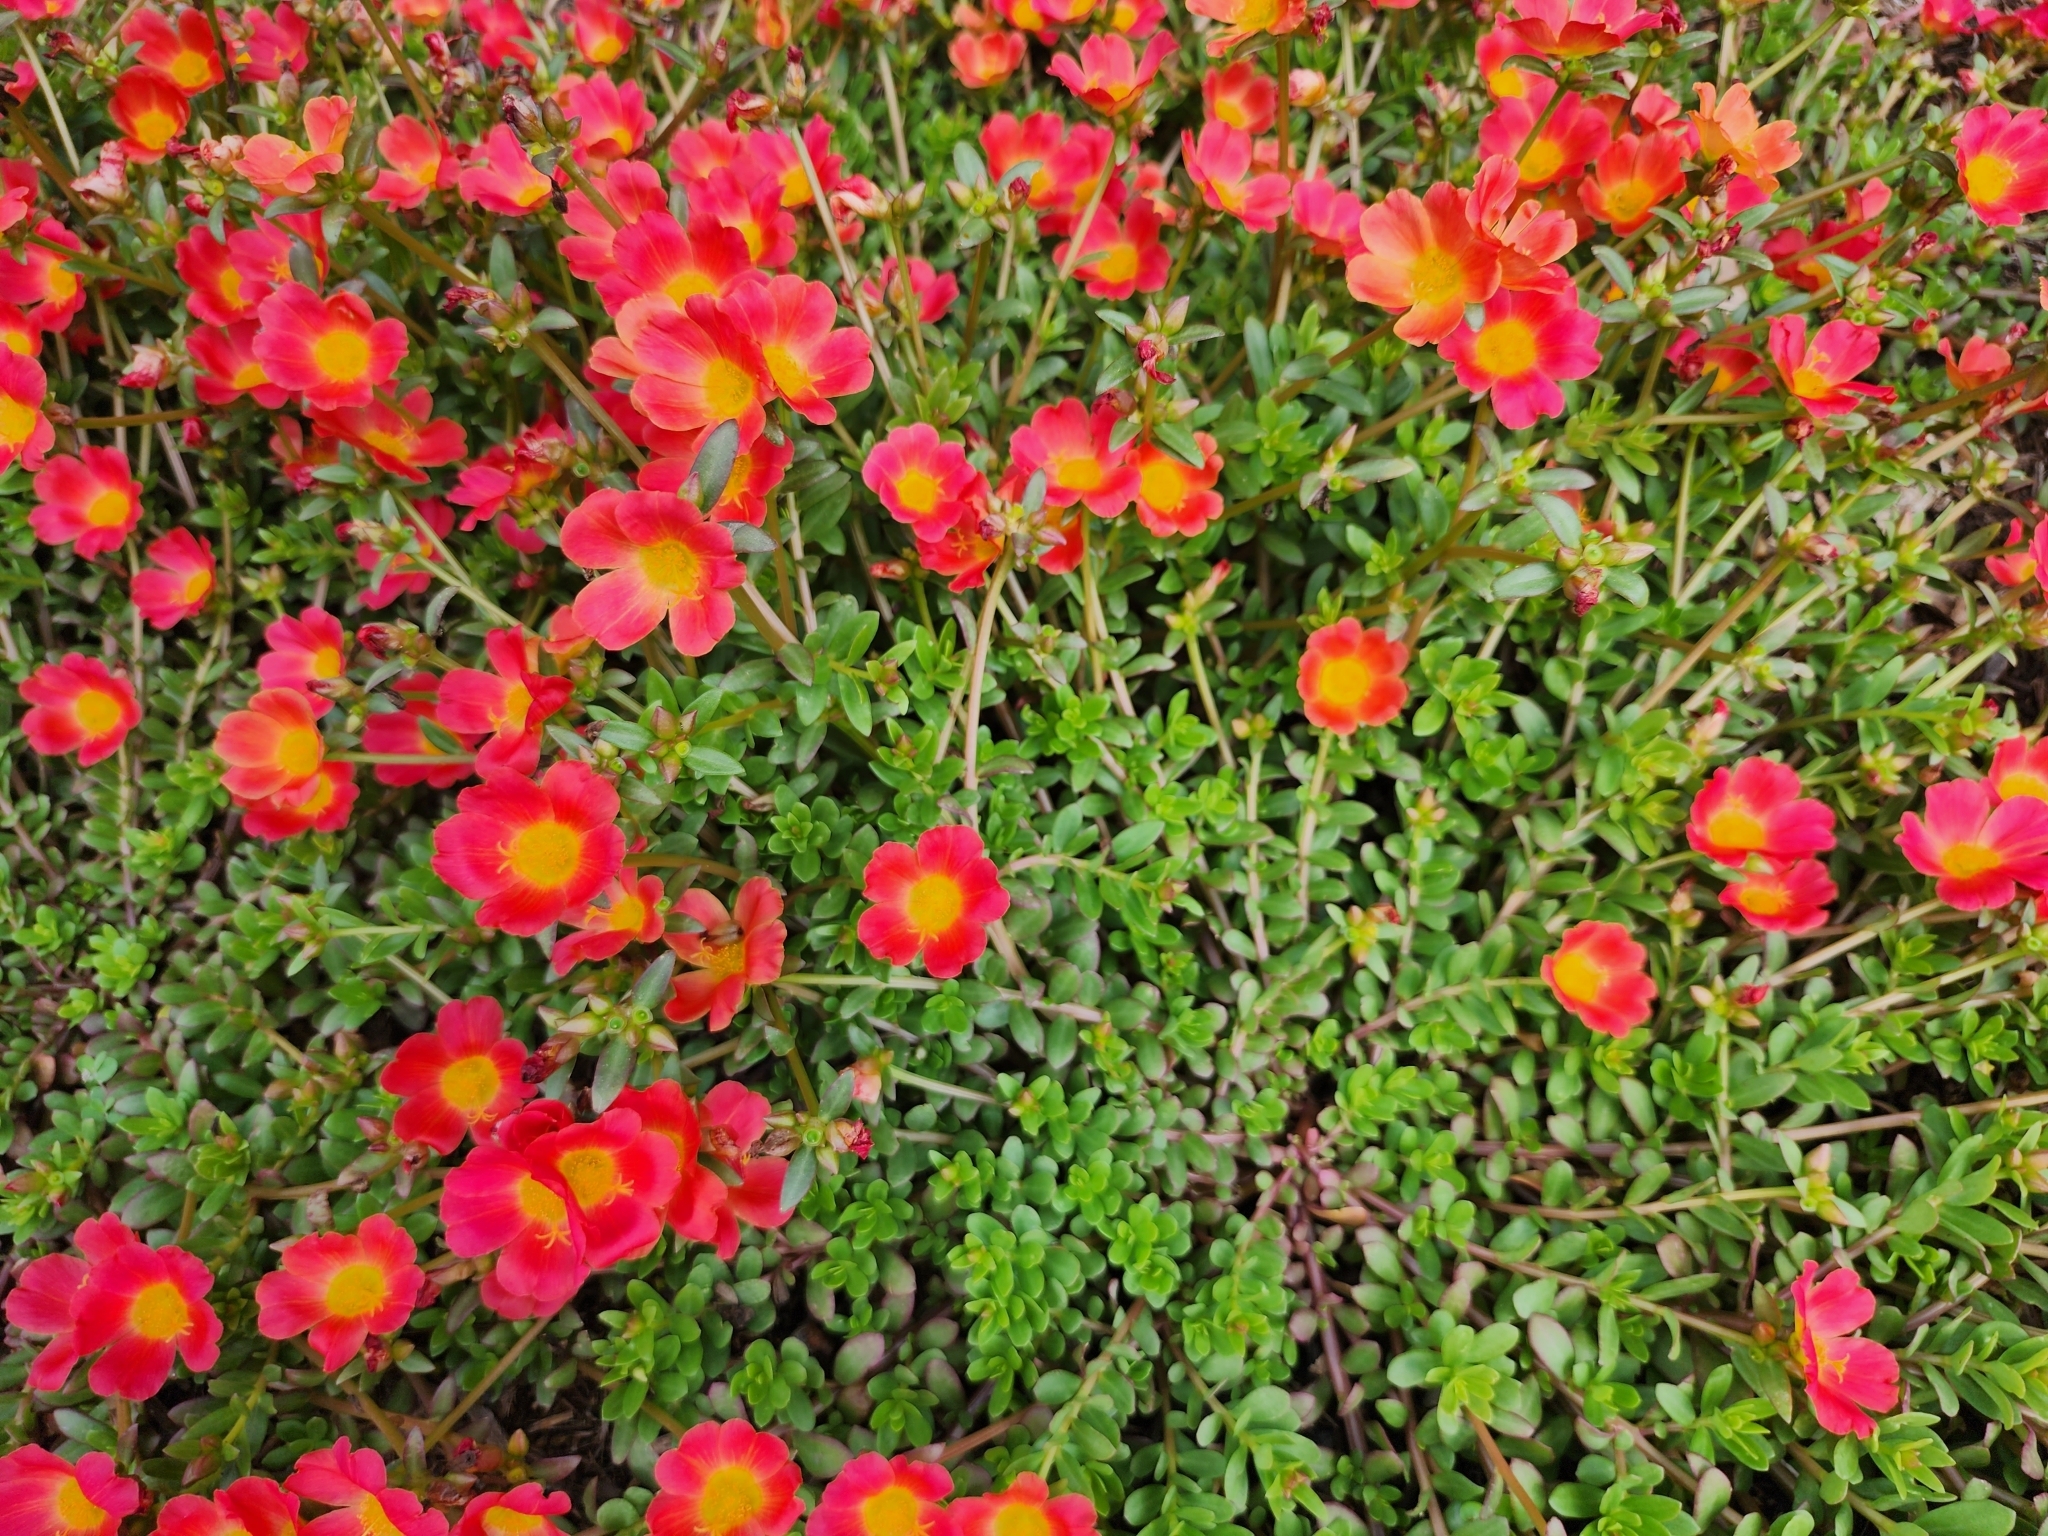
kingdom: Plantae
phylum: Tracheophyta
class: Magnoliopsida
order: Caryophyllales
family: Portulacaceae
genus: Portulaca
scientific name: Portulaca umbraticola
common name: Wingpod purslane
